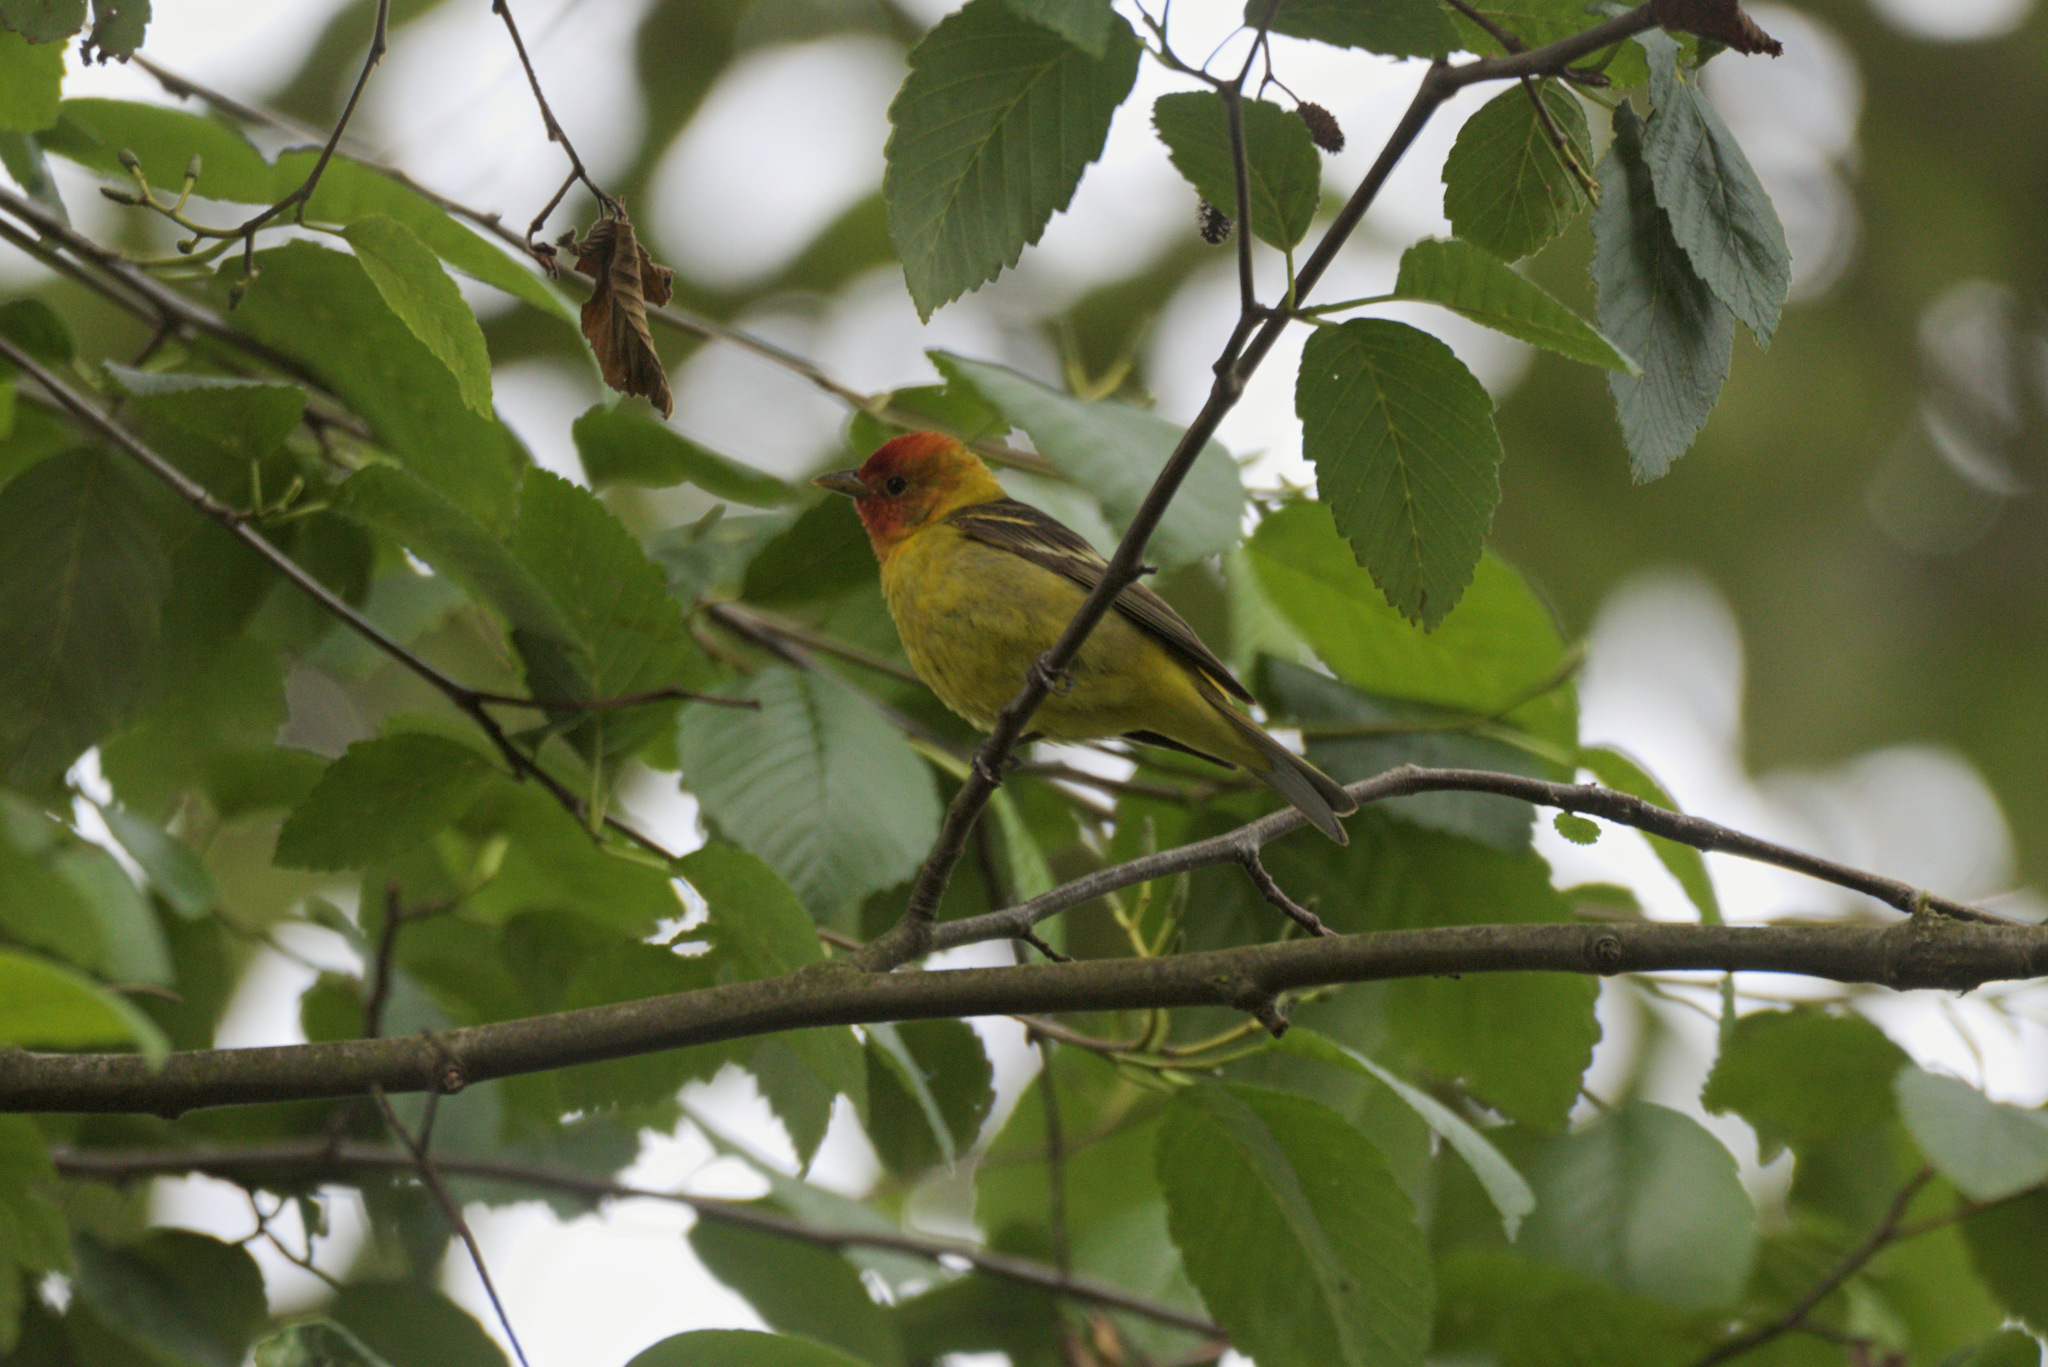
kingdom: Animalia
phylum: Chordata
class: Aves
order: Passeriformes
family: Cardinalidae
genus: Piranga
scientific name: Piranga ludoviciana
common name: Western tanager
